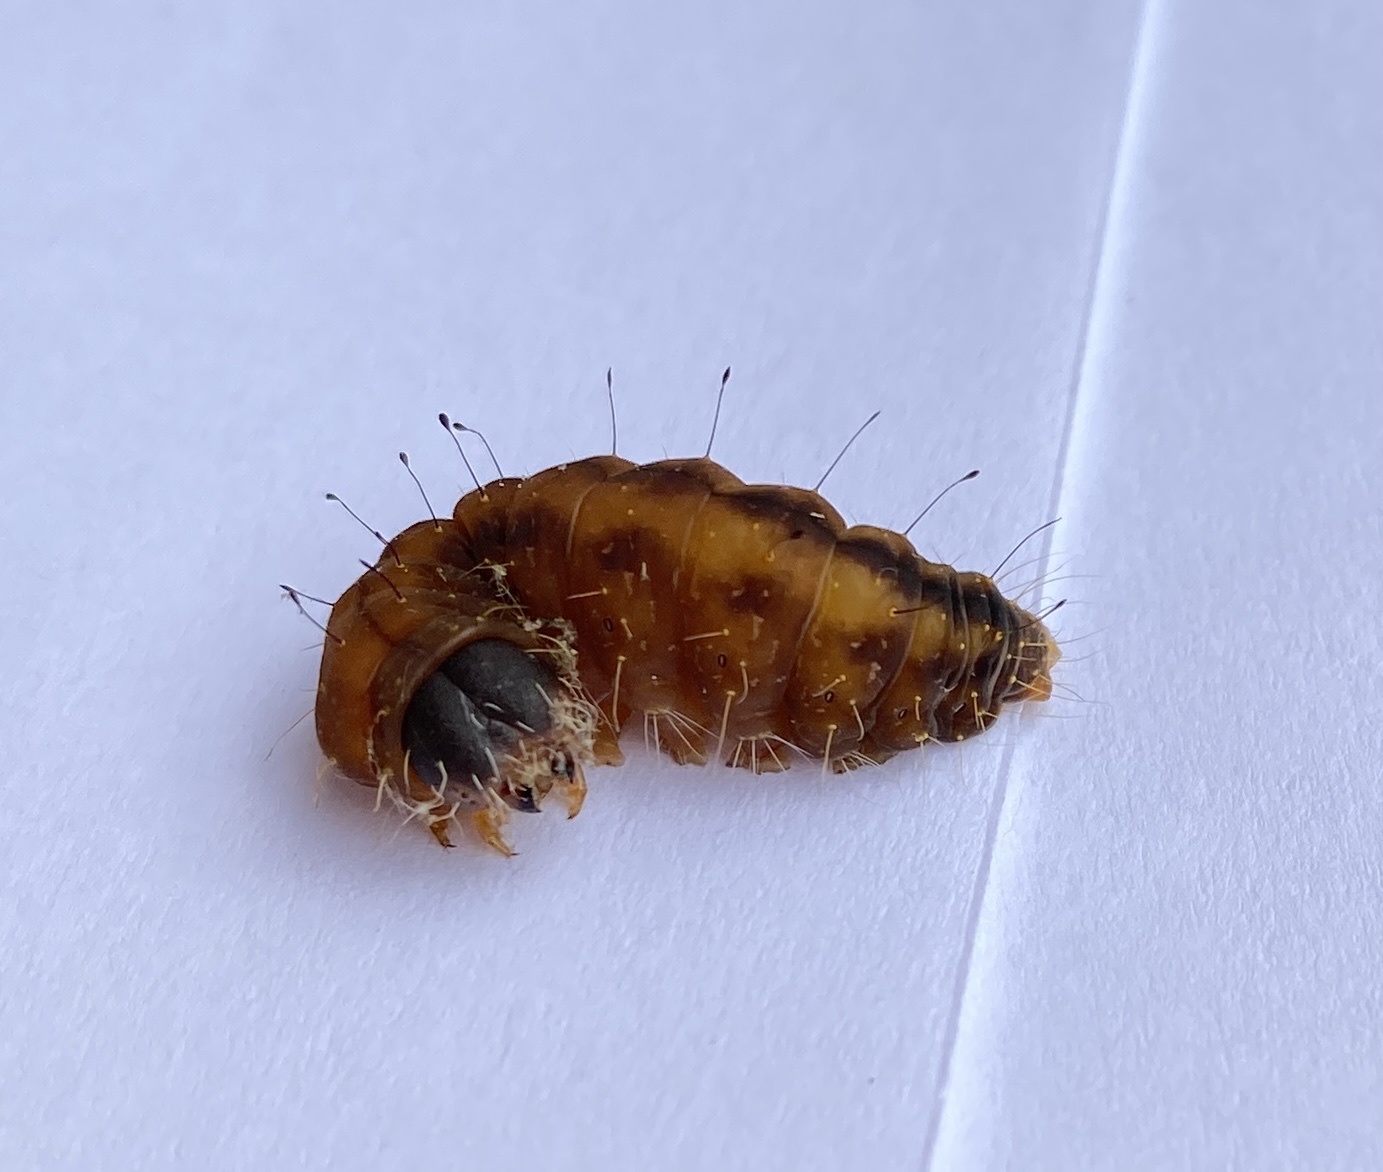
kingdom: Animalia
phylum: Arthropoda
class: Insecta
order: Lepidoptera
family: Noctuidae
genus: Acronicta
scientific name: Acronicta afflicta
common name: Afflicted dagger moth
